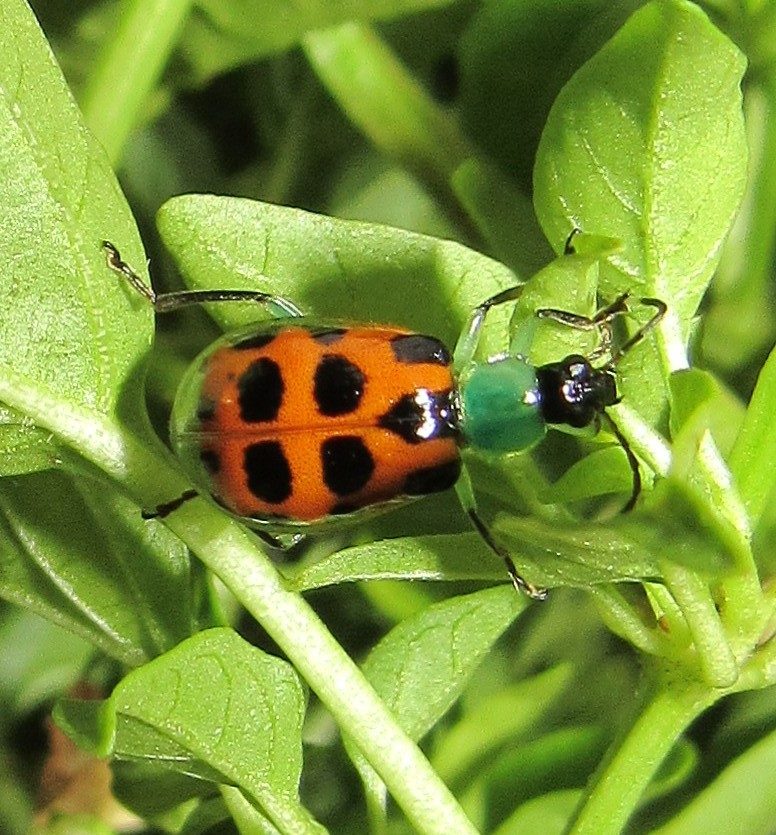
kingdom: Animalia
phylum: Arthropoda
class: Insecta
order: Coleoptera
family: Chrysomelidae
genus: Diabrotica
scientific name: Diabrotica limitata
